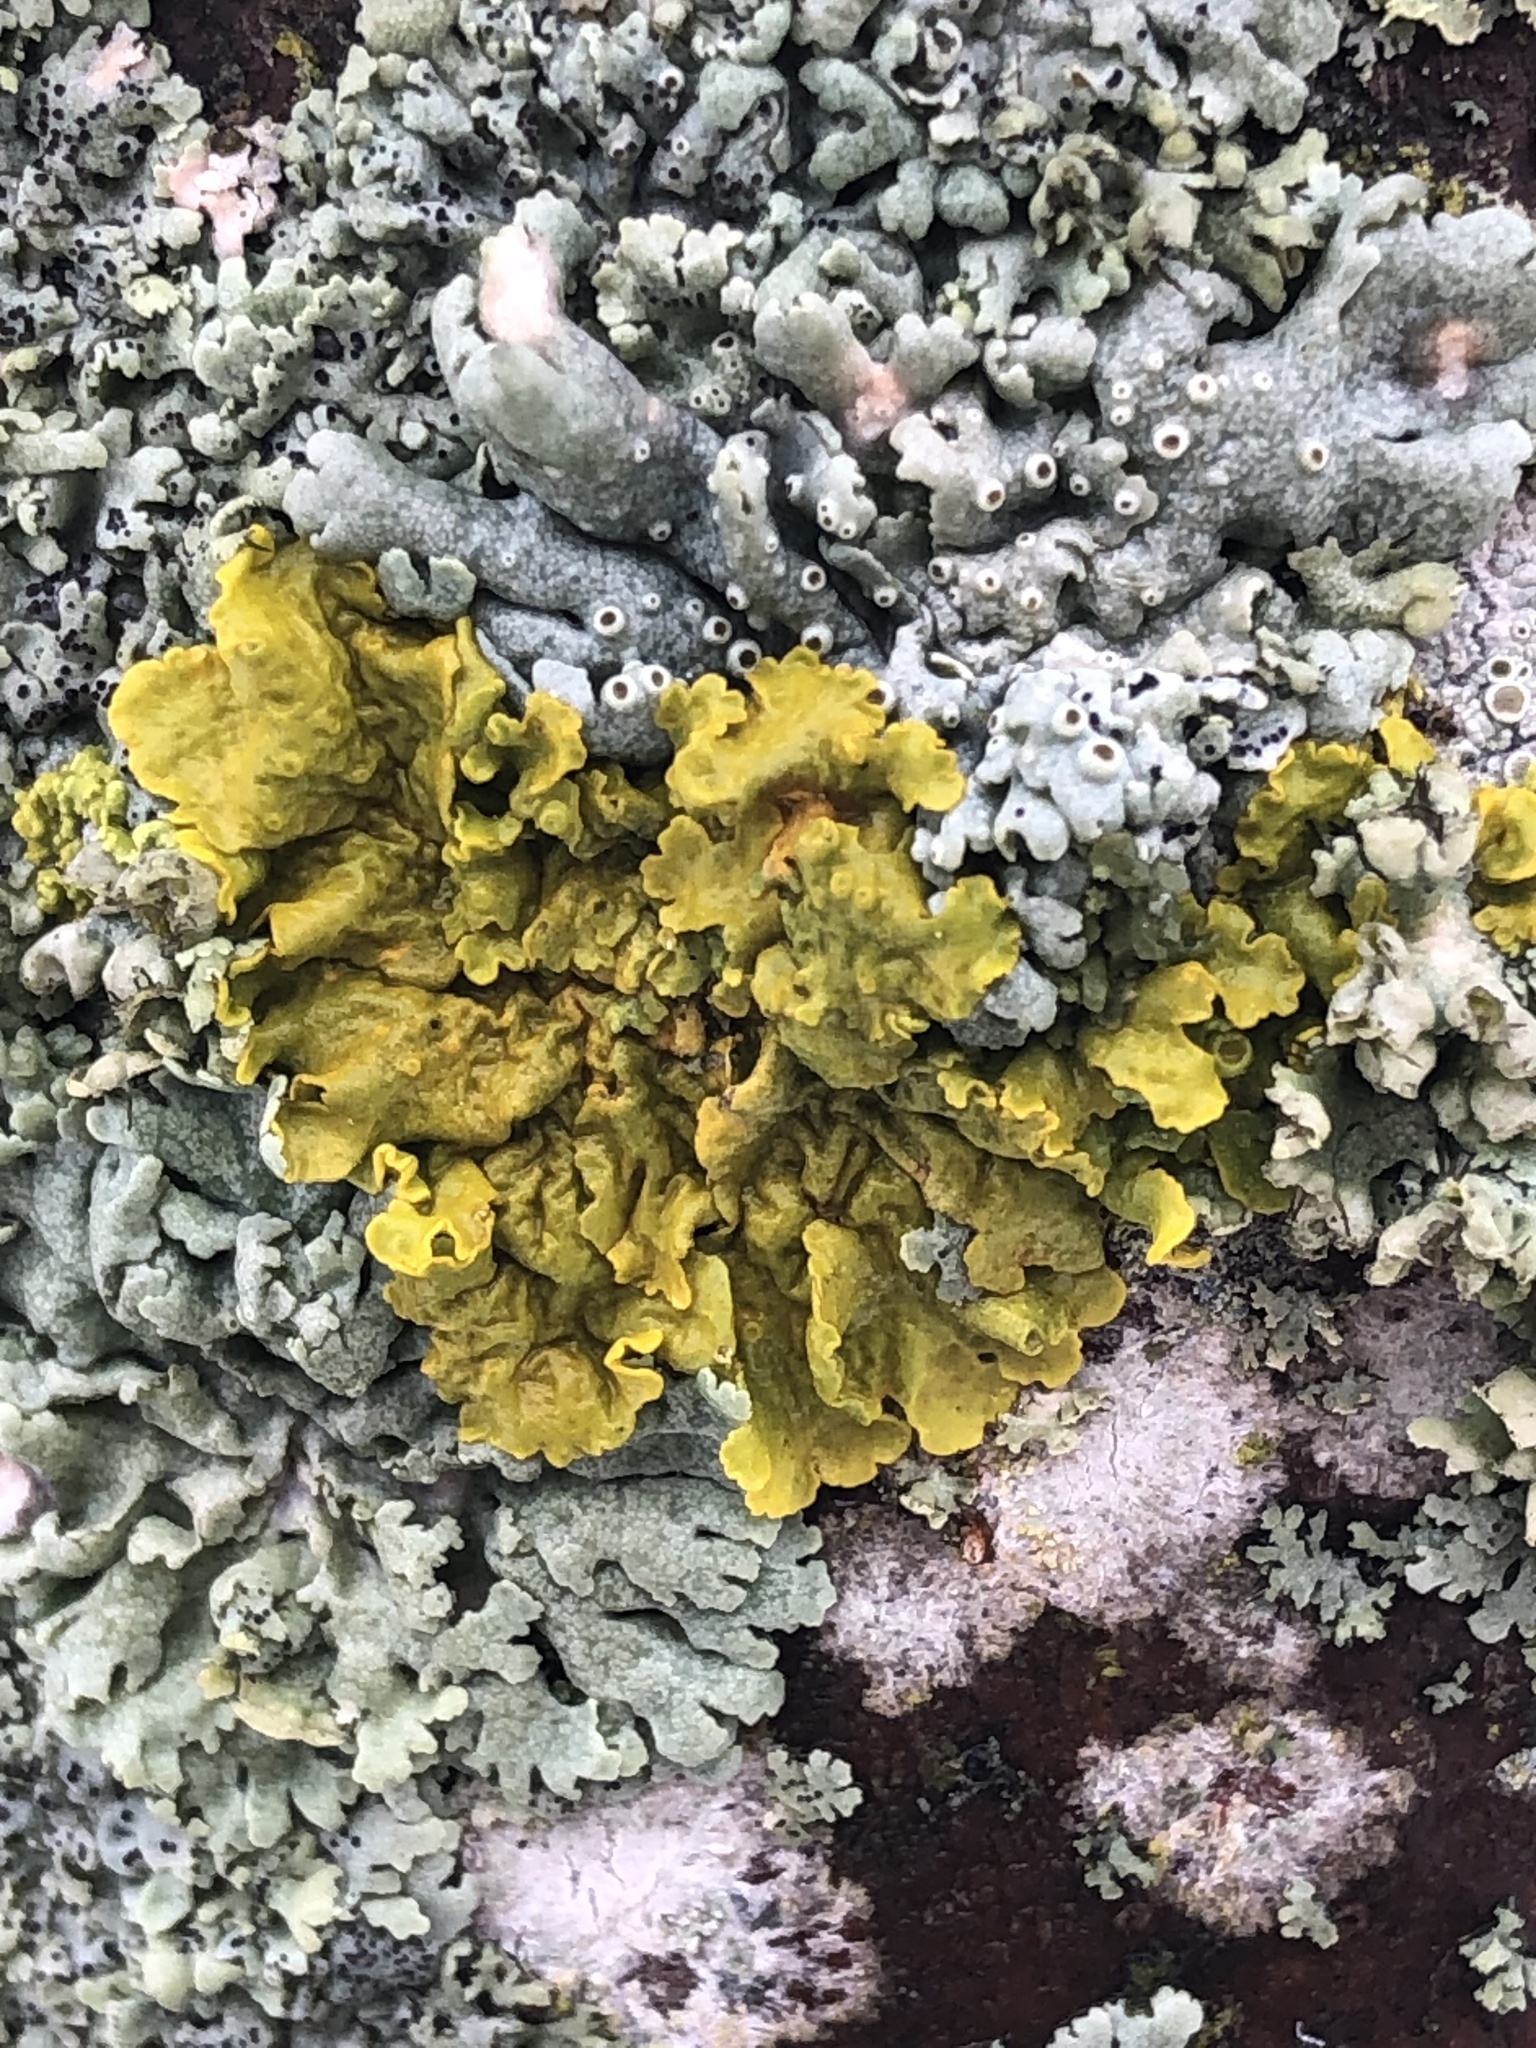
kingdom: Fungi
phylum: Ascomycota
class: Lecanoromycetes
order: Teloschistales
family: Teloschistaceae
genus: Xanthoria
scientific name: Xanthoria parietina
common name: Common orange lichen
